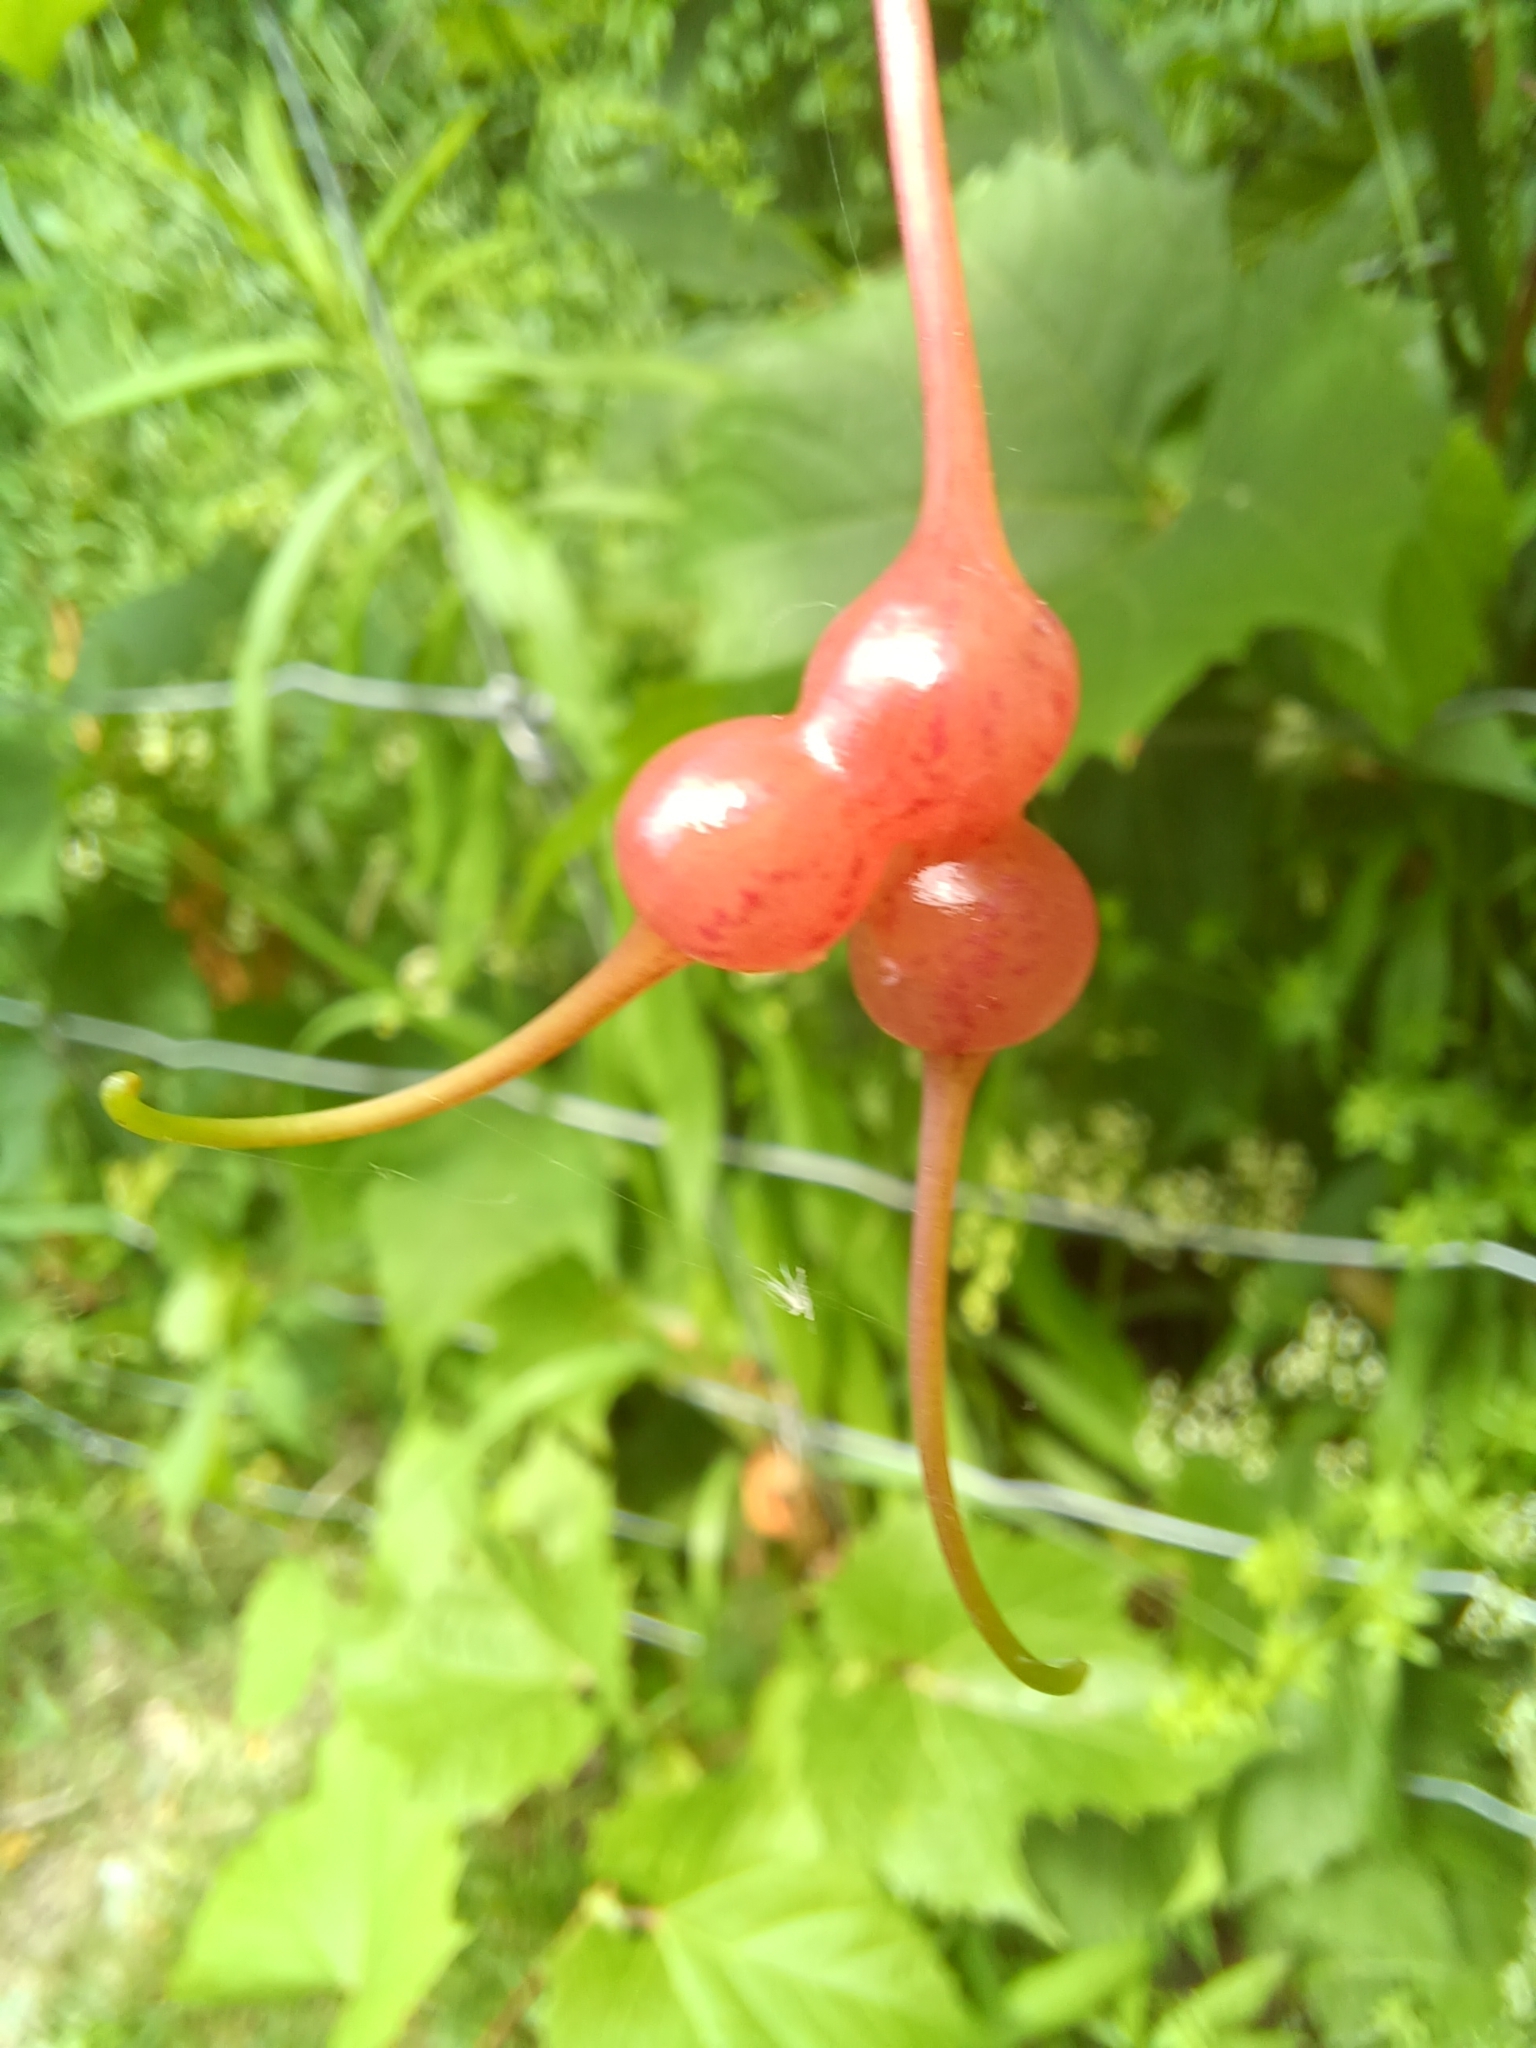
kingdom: Animalia
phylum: Arthropoda
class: Insecta
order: Diptera
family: Cecidomyiidae
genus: Vitisiella
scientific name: Vitisiella brevicauda
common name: Grape tumid gallmaker midge
